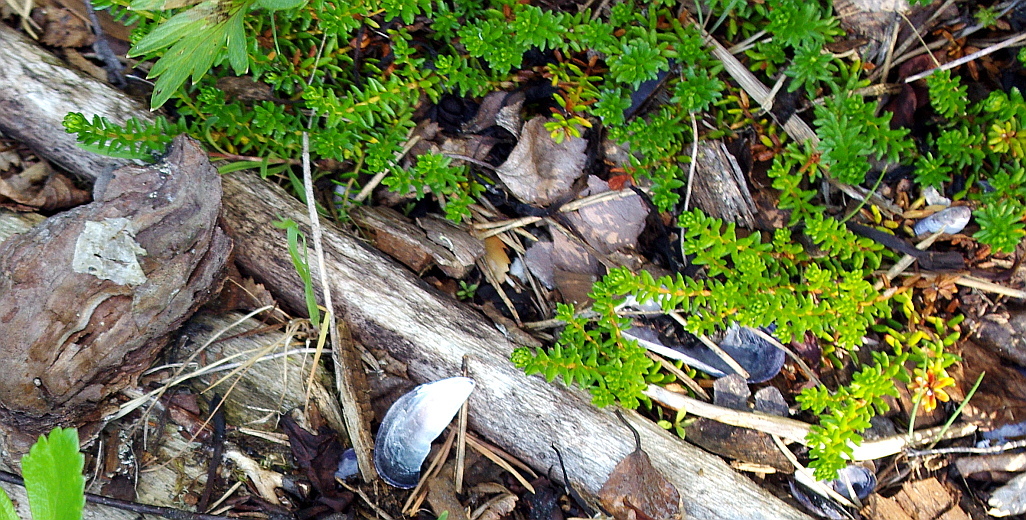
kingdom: Plantae
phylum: Tracheophyta
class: Magnoliopsida
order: Ericales
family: Ericaceae
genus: Empetrum
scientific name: Empetrum nigrum
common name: Black crowberry
